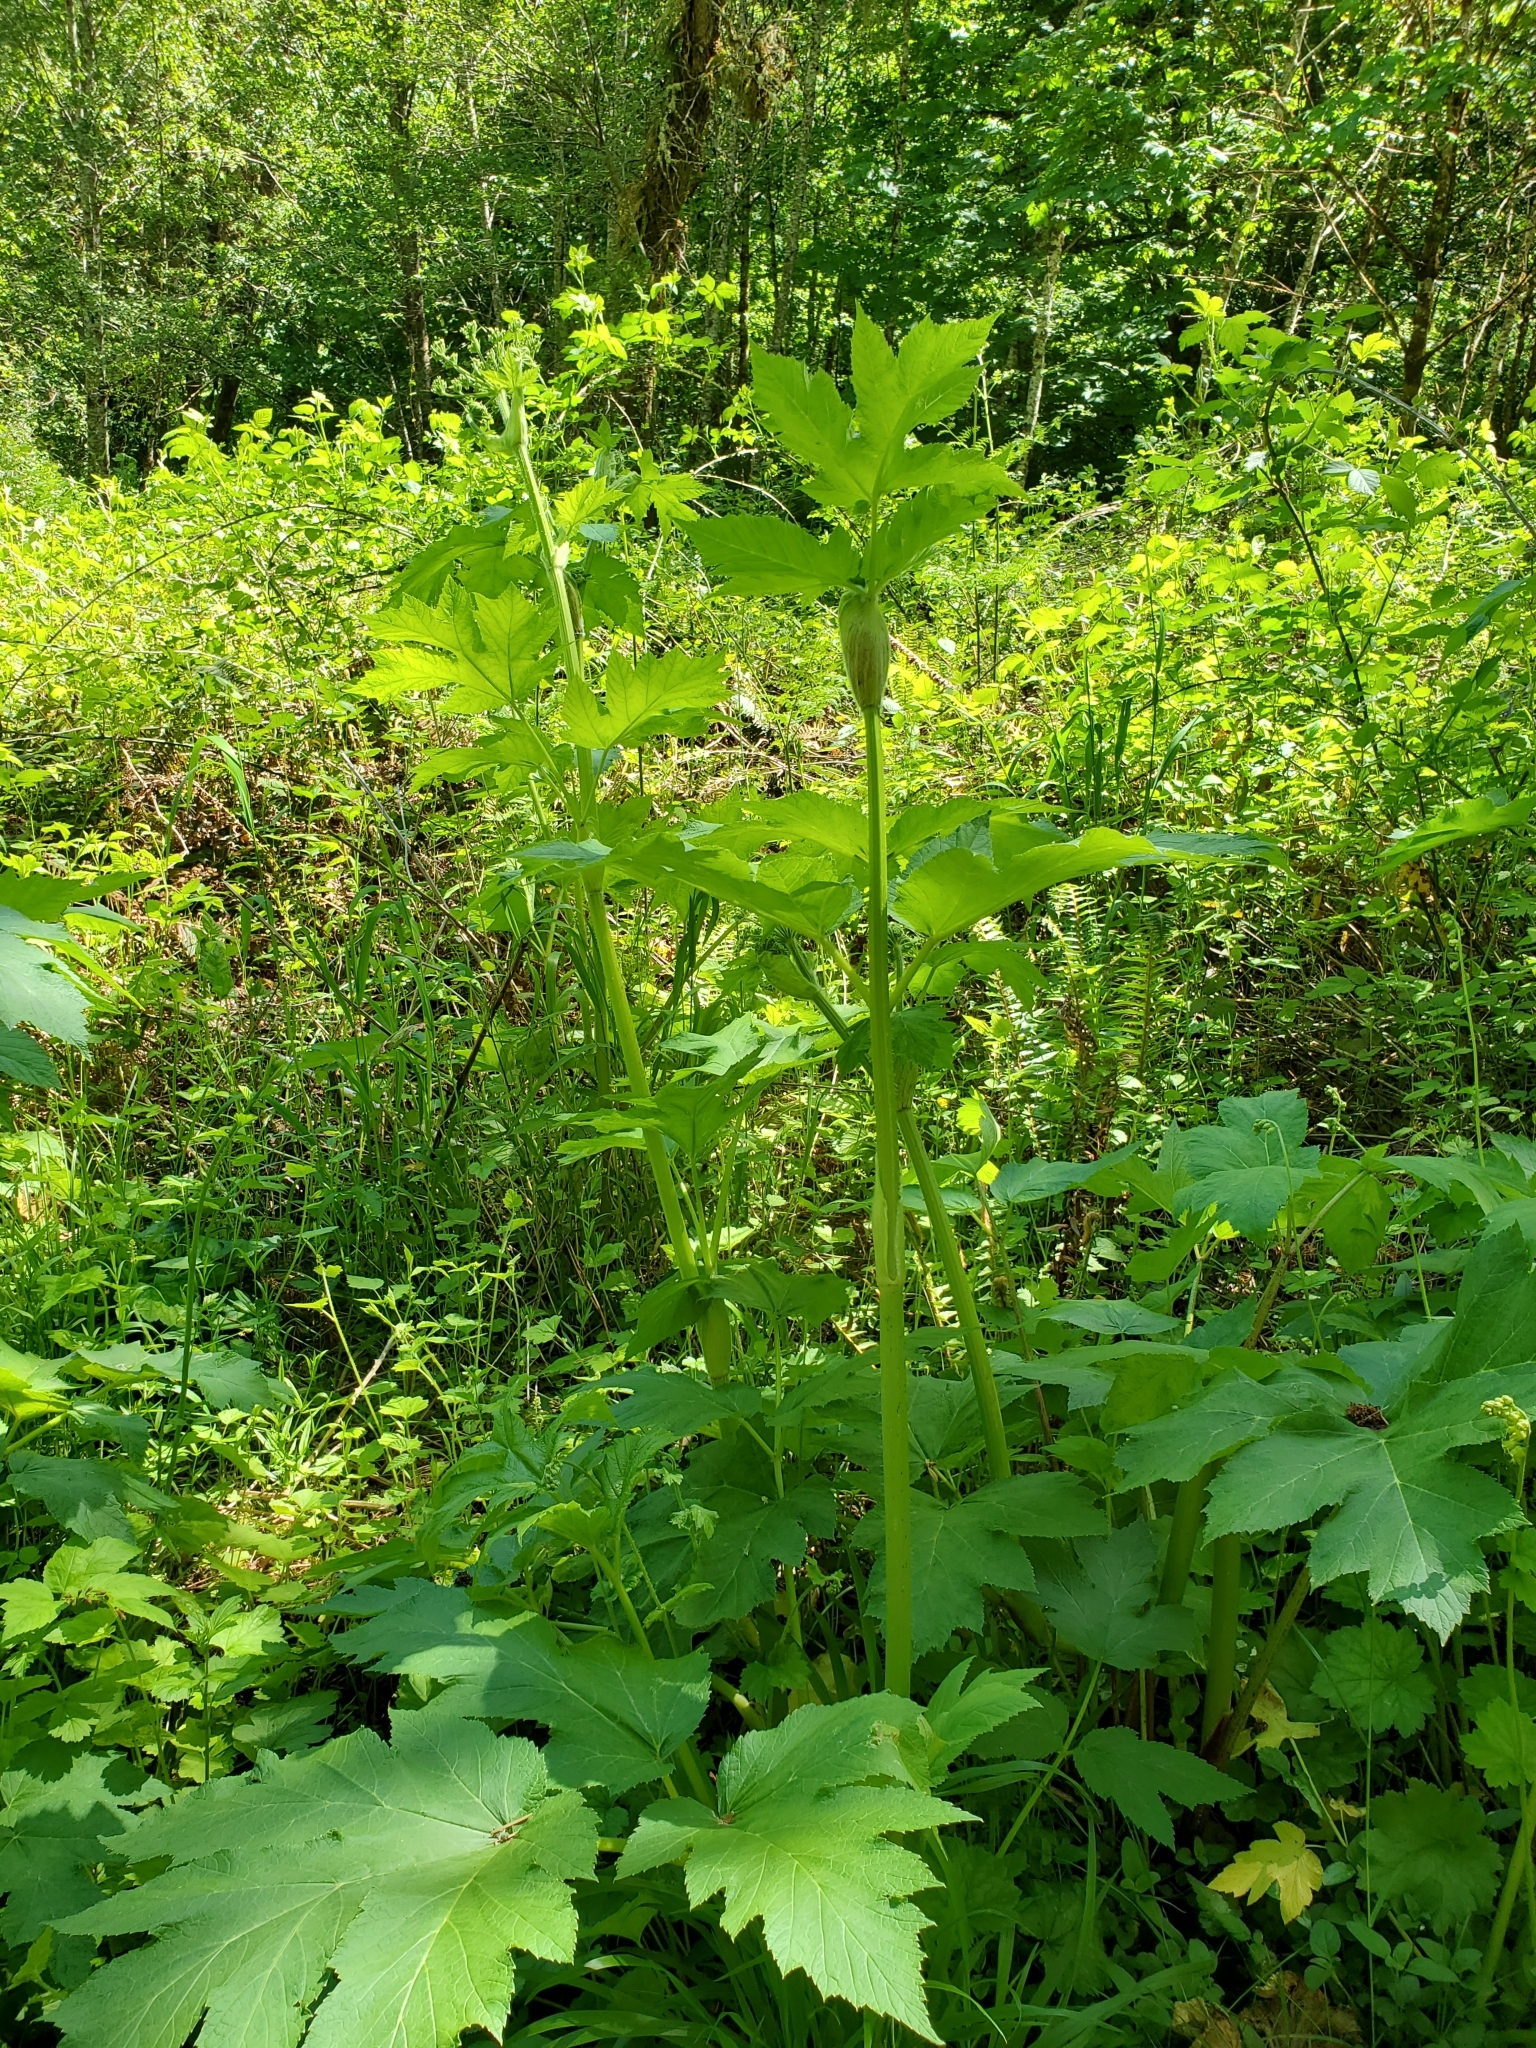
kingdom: Plantae
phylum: Tracheophyta
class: Magnoliopsida
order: Apiales
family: Apiaceae
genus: Heracleum
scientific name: Heracleum maximum
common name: American cow parsnip
